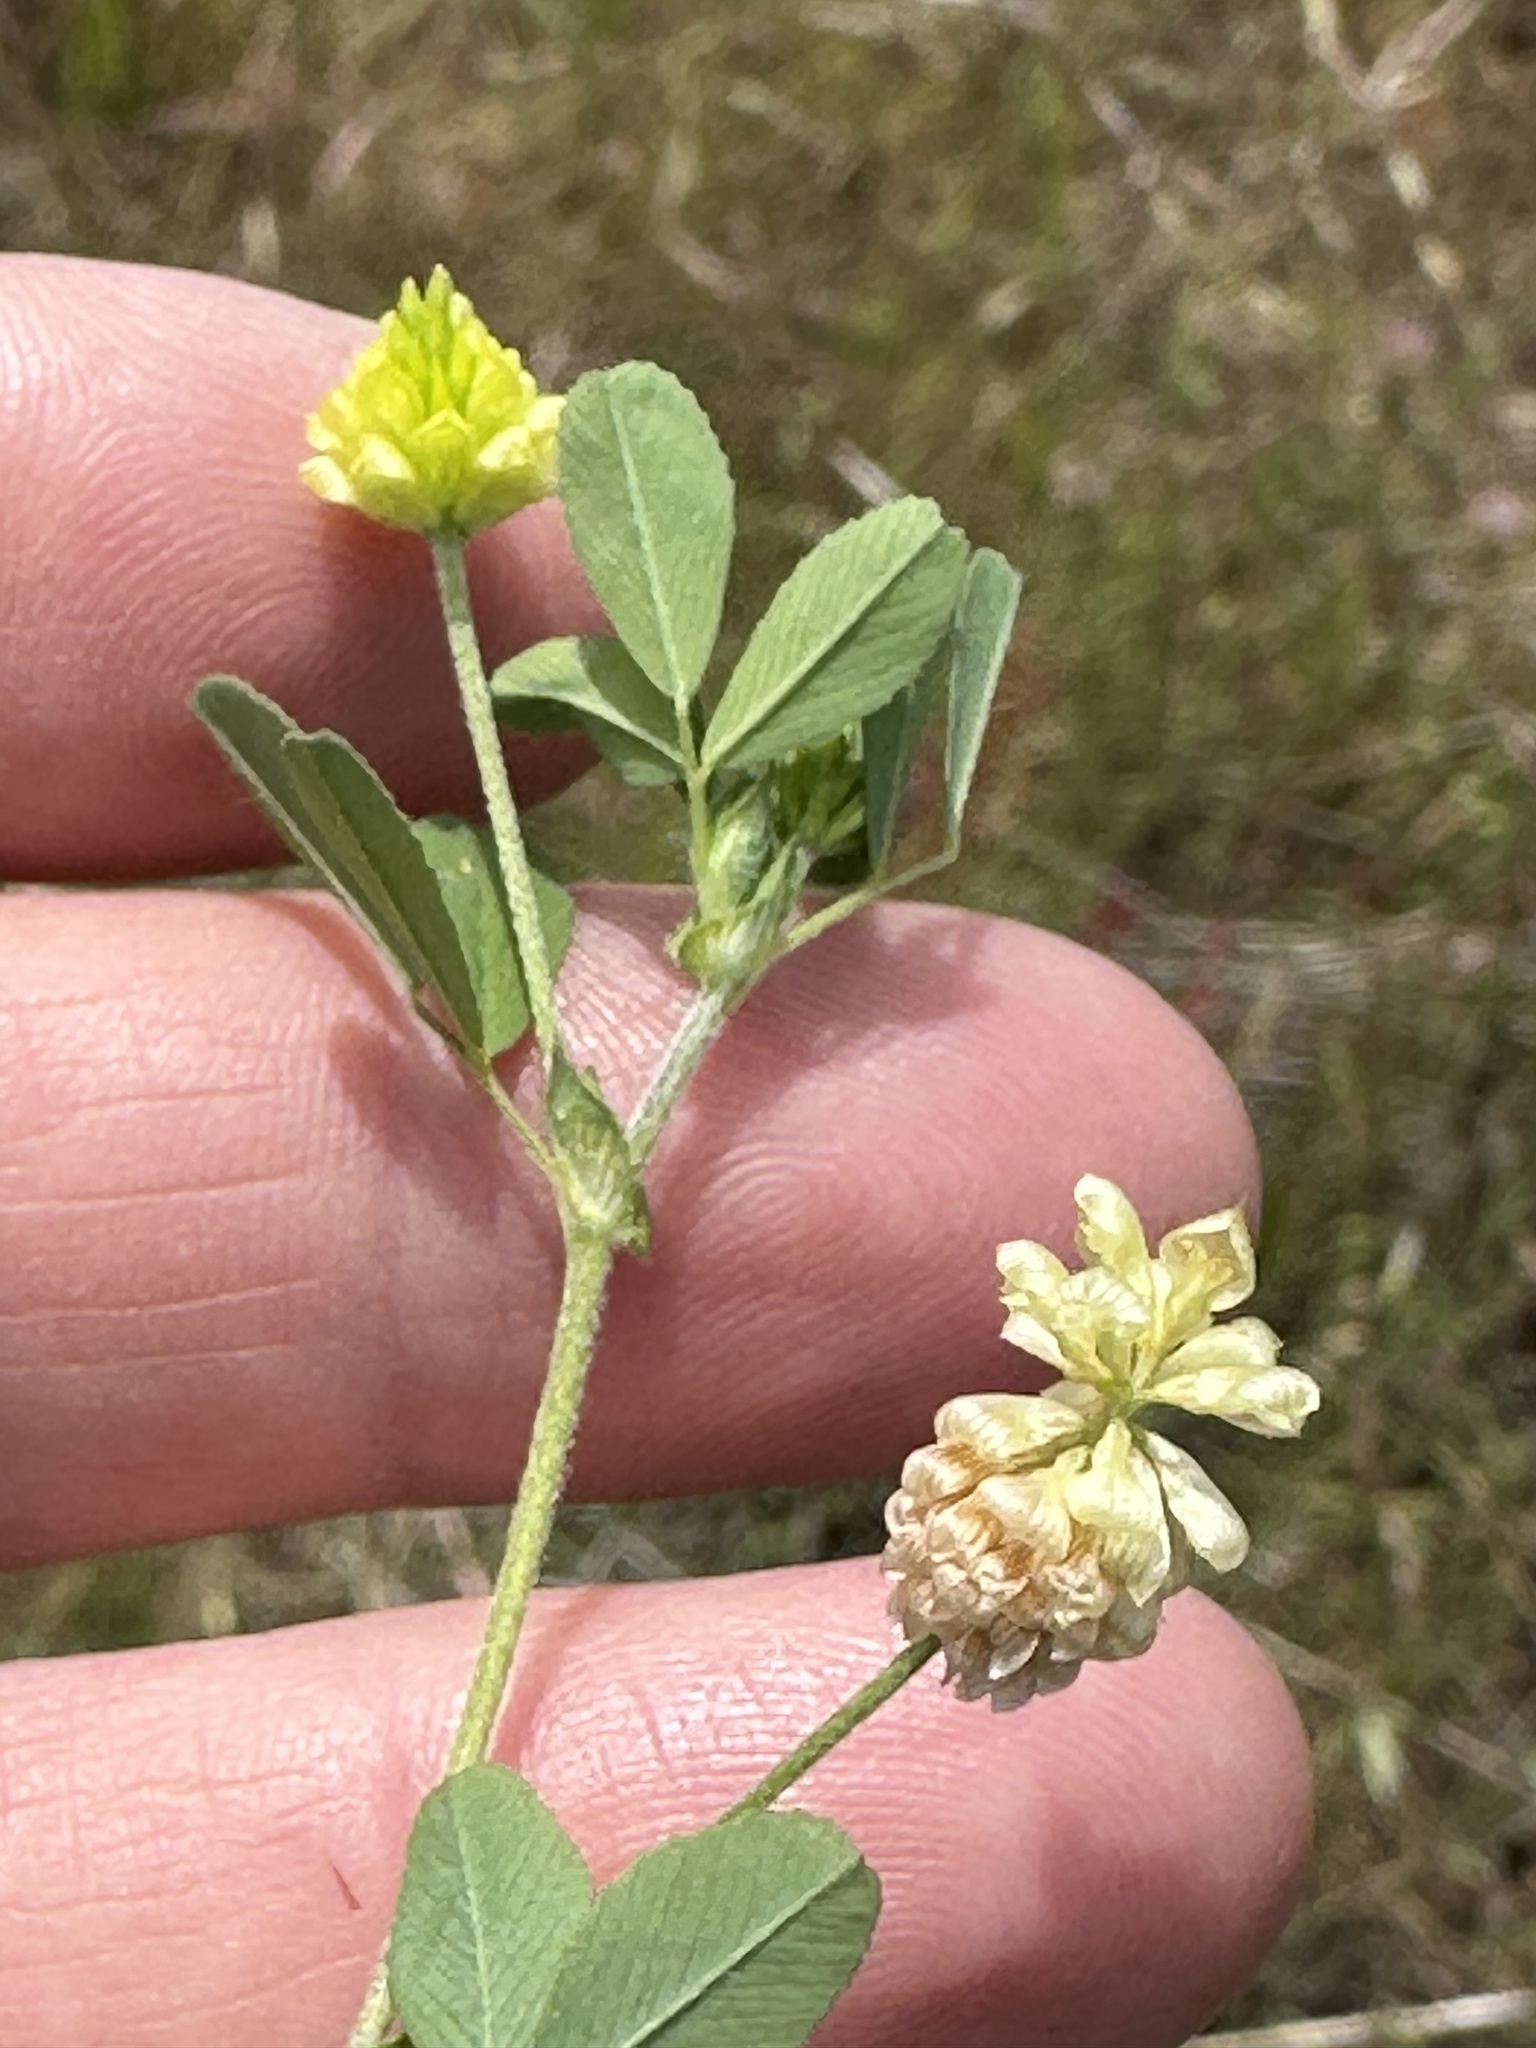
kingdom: Plantae
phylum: Tracheophyta
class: Magnoliopsida
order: Fabales
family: Fabaceae
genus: Trifolium
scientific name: Trifolium campestre
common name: Field clover
